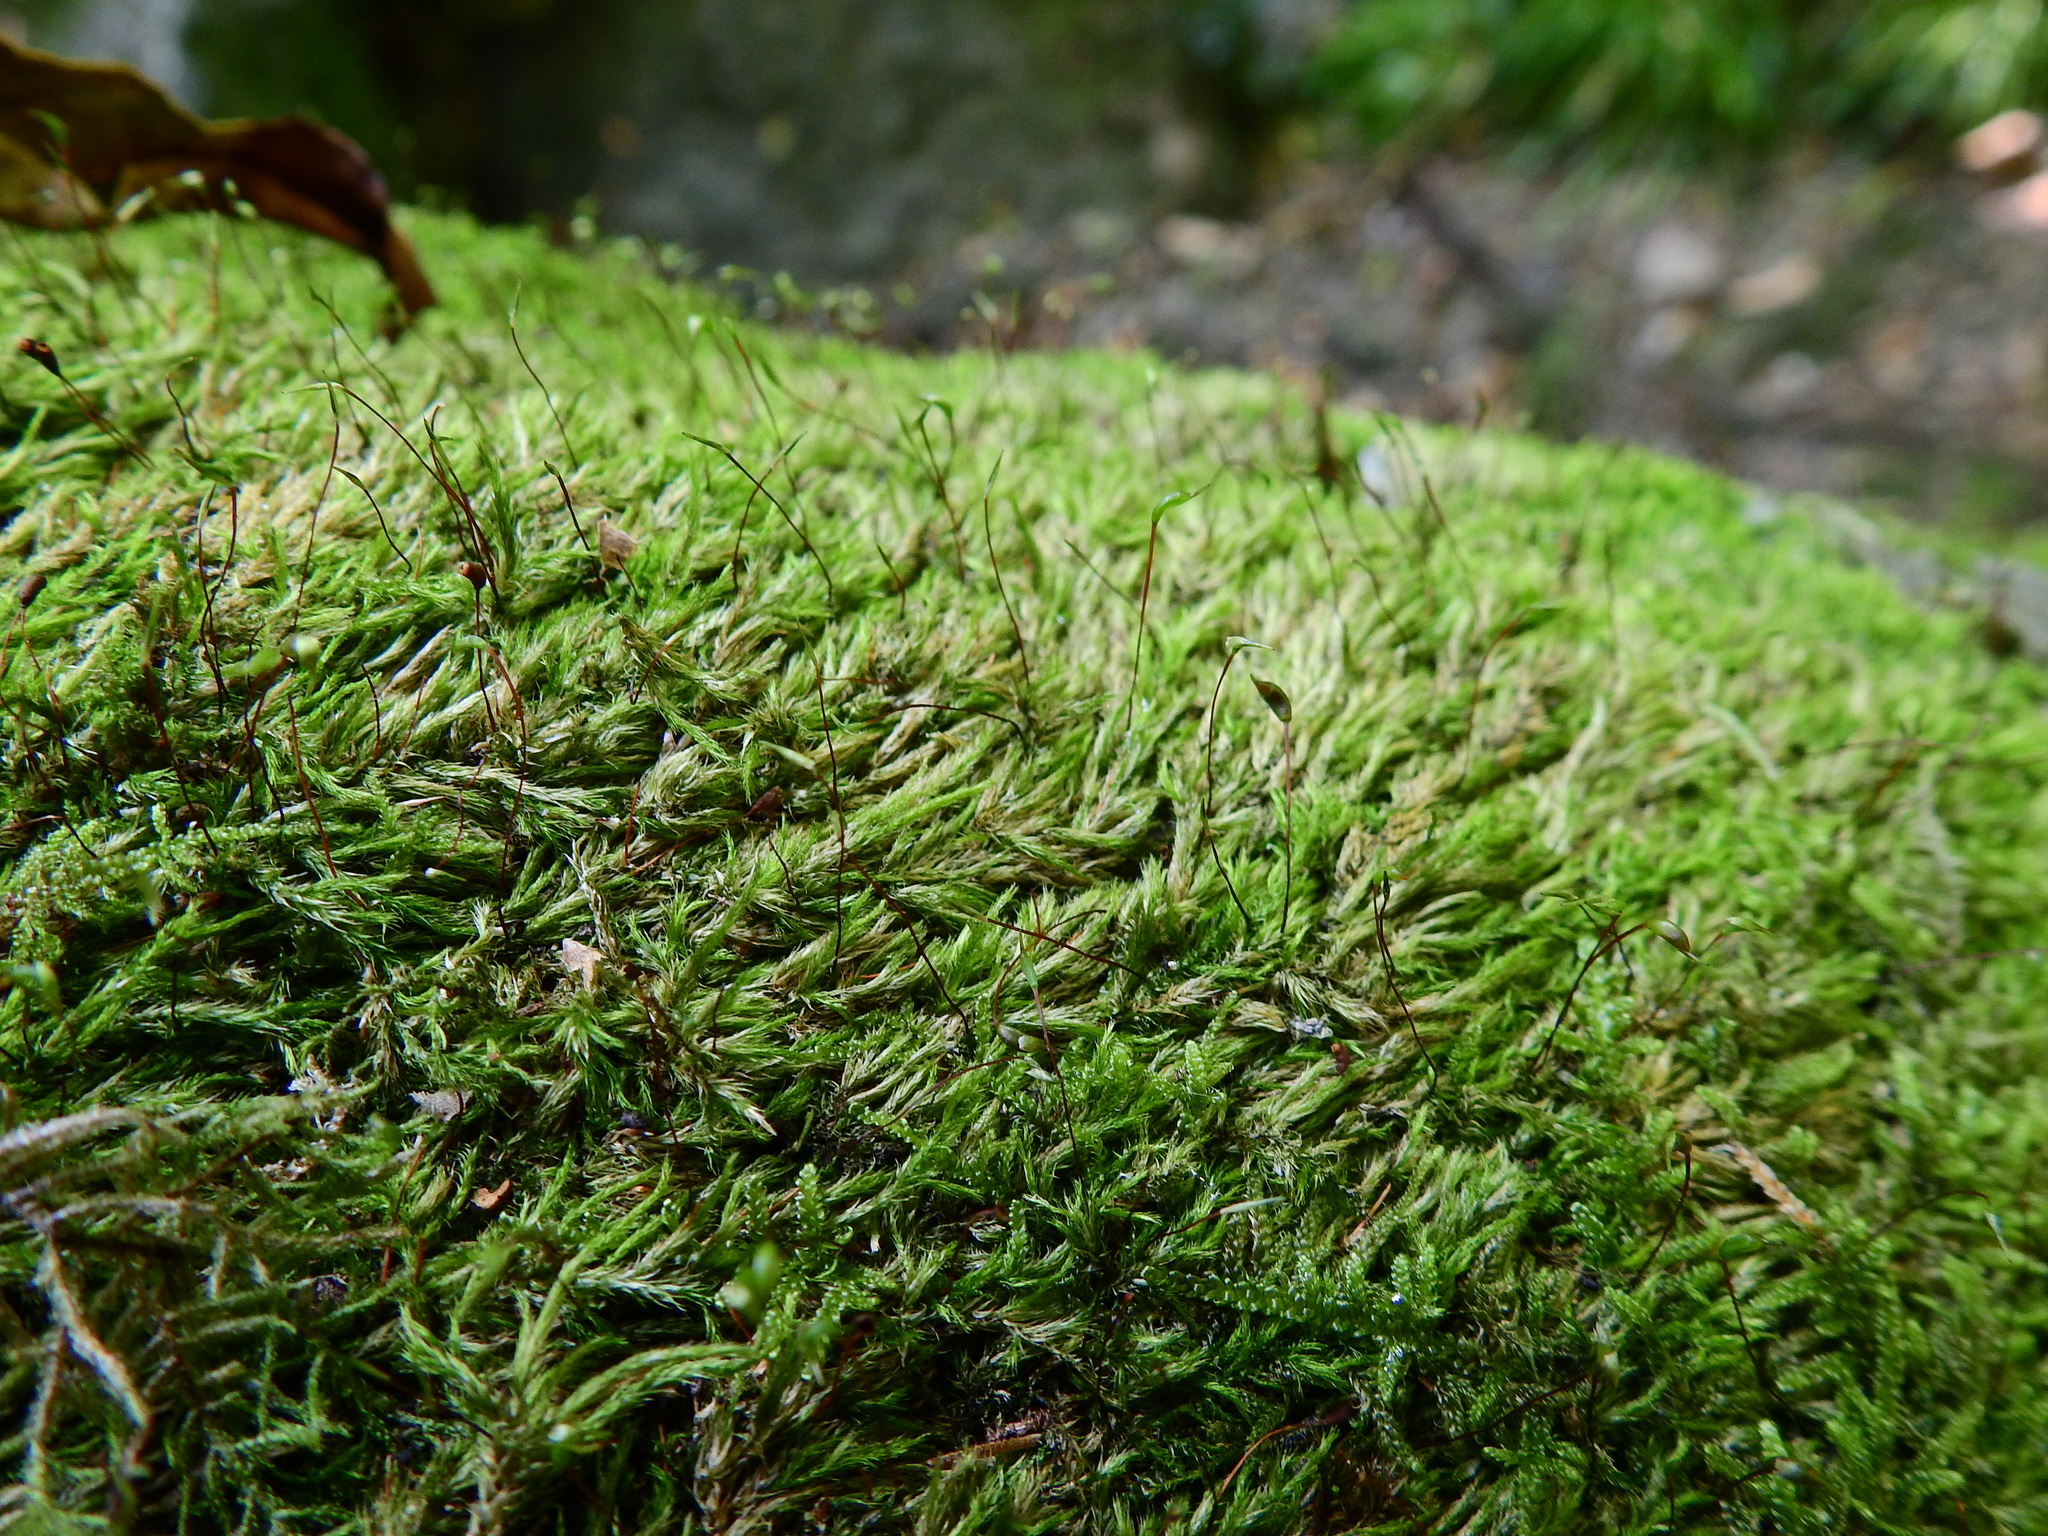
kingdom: Plantae
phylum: Bryophyta
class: Bryopsida
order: Hypnales
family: Brachytheciaceae
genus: Sciuro-hypnum
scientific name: Sciuro-hypnum populeum
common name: Matted feather-moss
